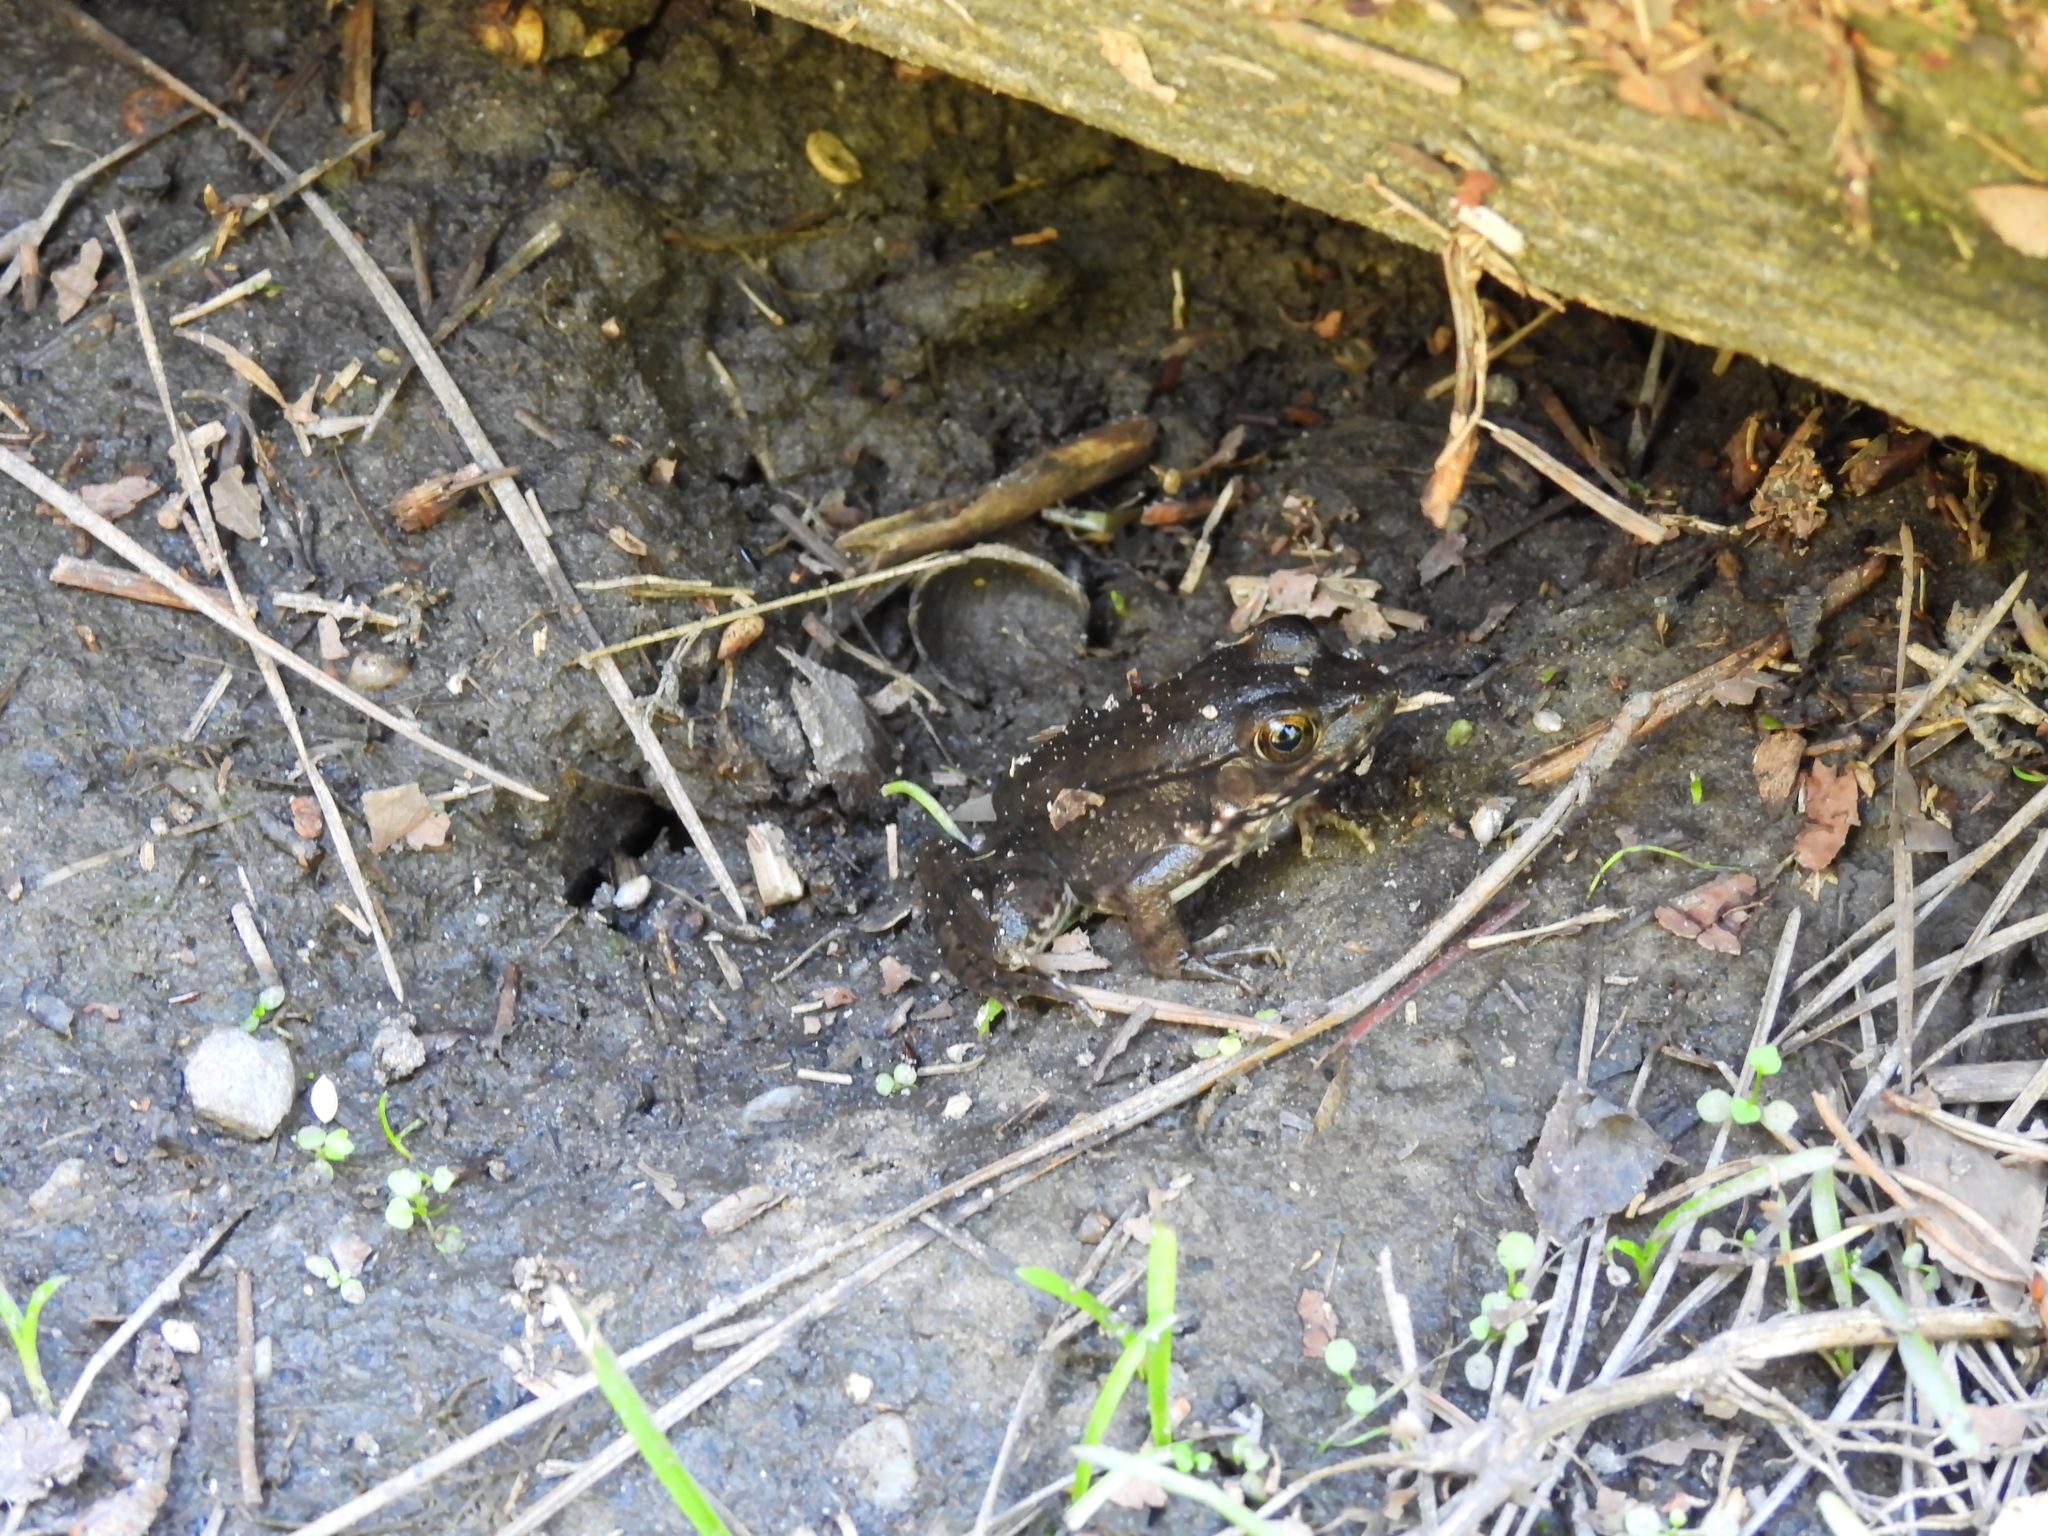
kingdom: Animalia
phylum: Chordata
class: Amphibia
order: Anura
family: Ranidae
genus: Lithobates
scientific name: Lithobates clamitans
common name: Green frog
